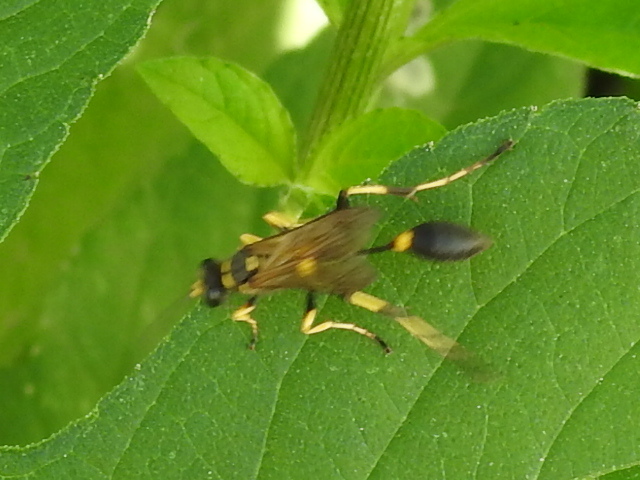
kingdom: Animalia
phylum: Arthropoda
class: Insecta
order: Hymenoptera
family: Sphecidae
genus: Sceliphron
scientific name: Sceliphron caementarium
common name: Mud dauber
